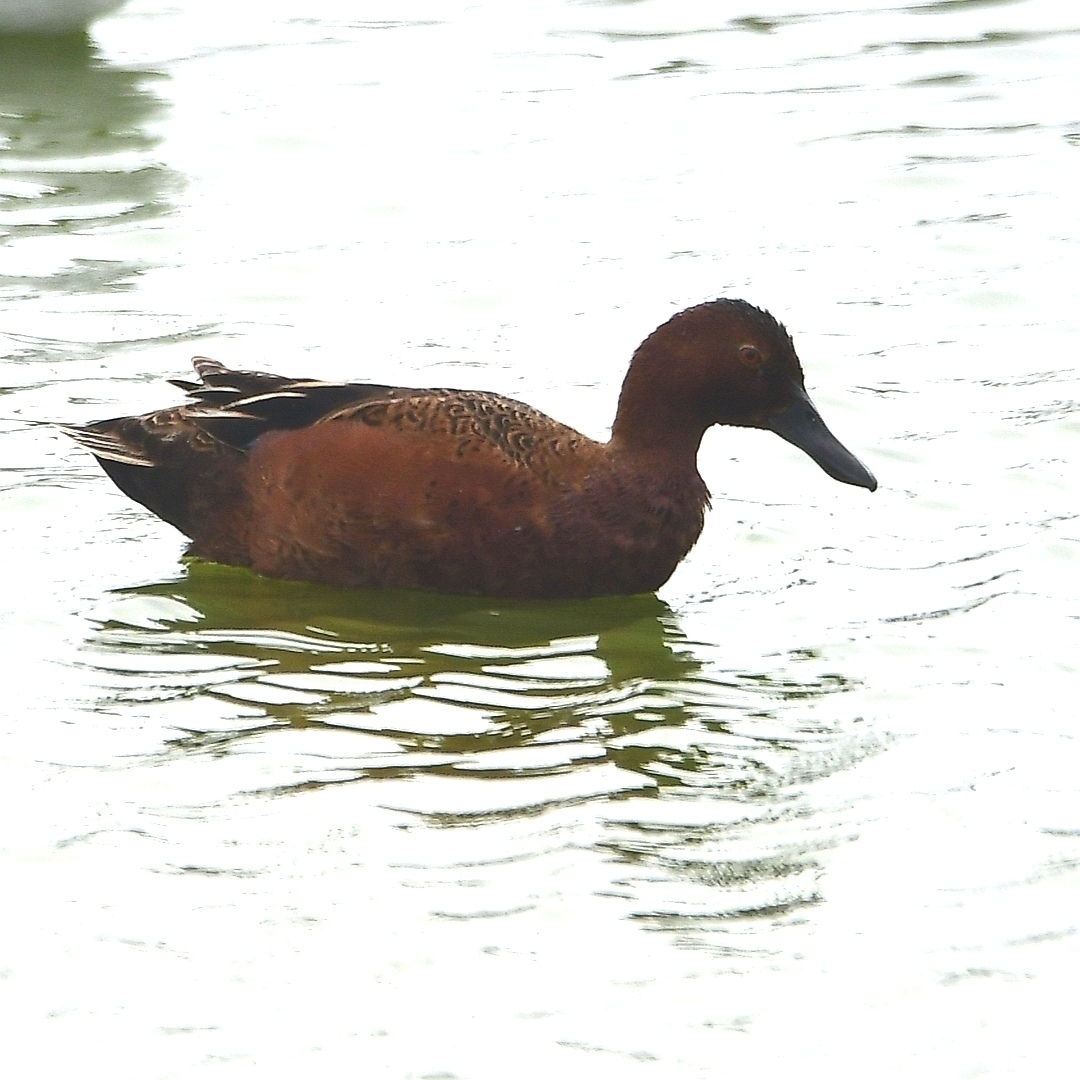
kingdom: Animalia
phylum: Chordata
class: Aves
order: Anseriformes
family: Anatidae
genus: Spatula
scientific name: Spatula cyanoptera
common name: Cinnamon teal
